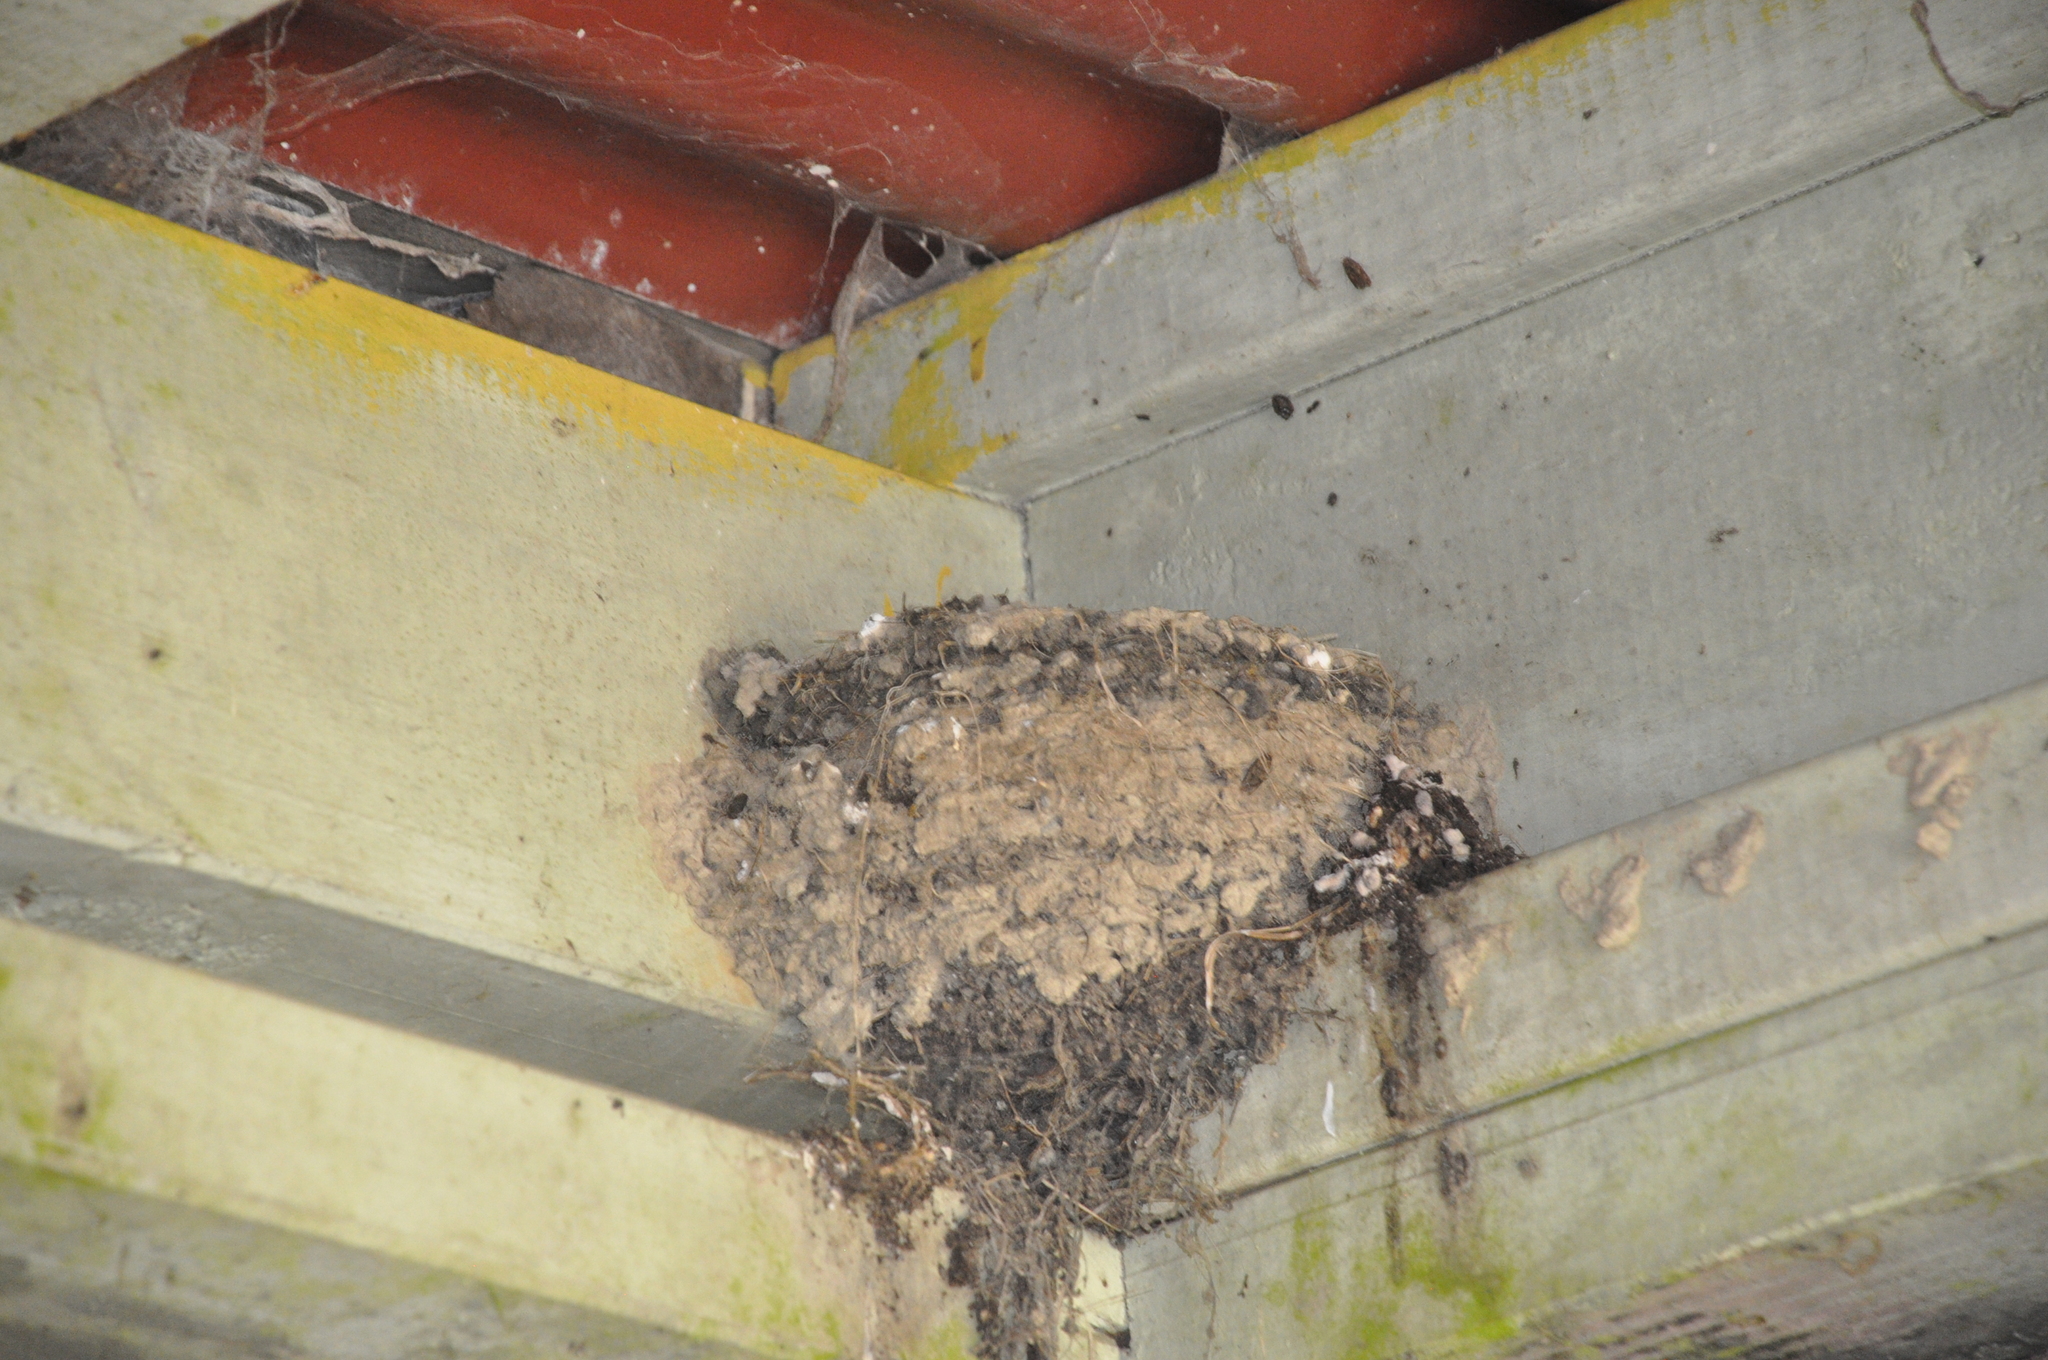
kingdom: Animalia
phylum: Chordata
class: Aves
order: Passeriformes
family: Hirundinidae
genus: Hirundo
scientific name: Hirundo neoxena
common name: Welcome swallow
